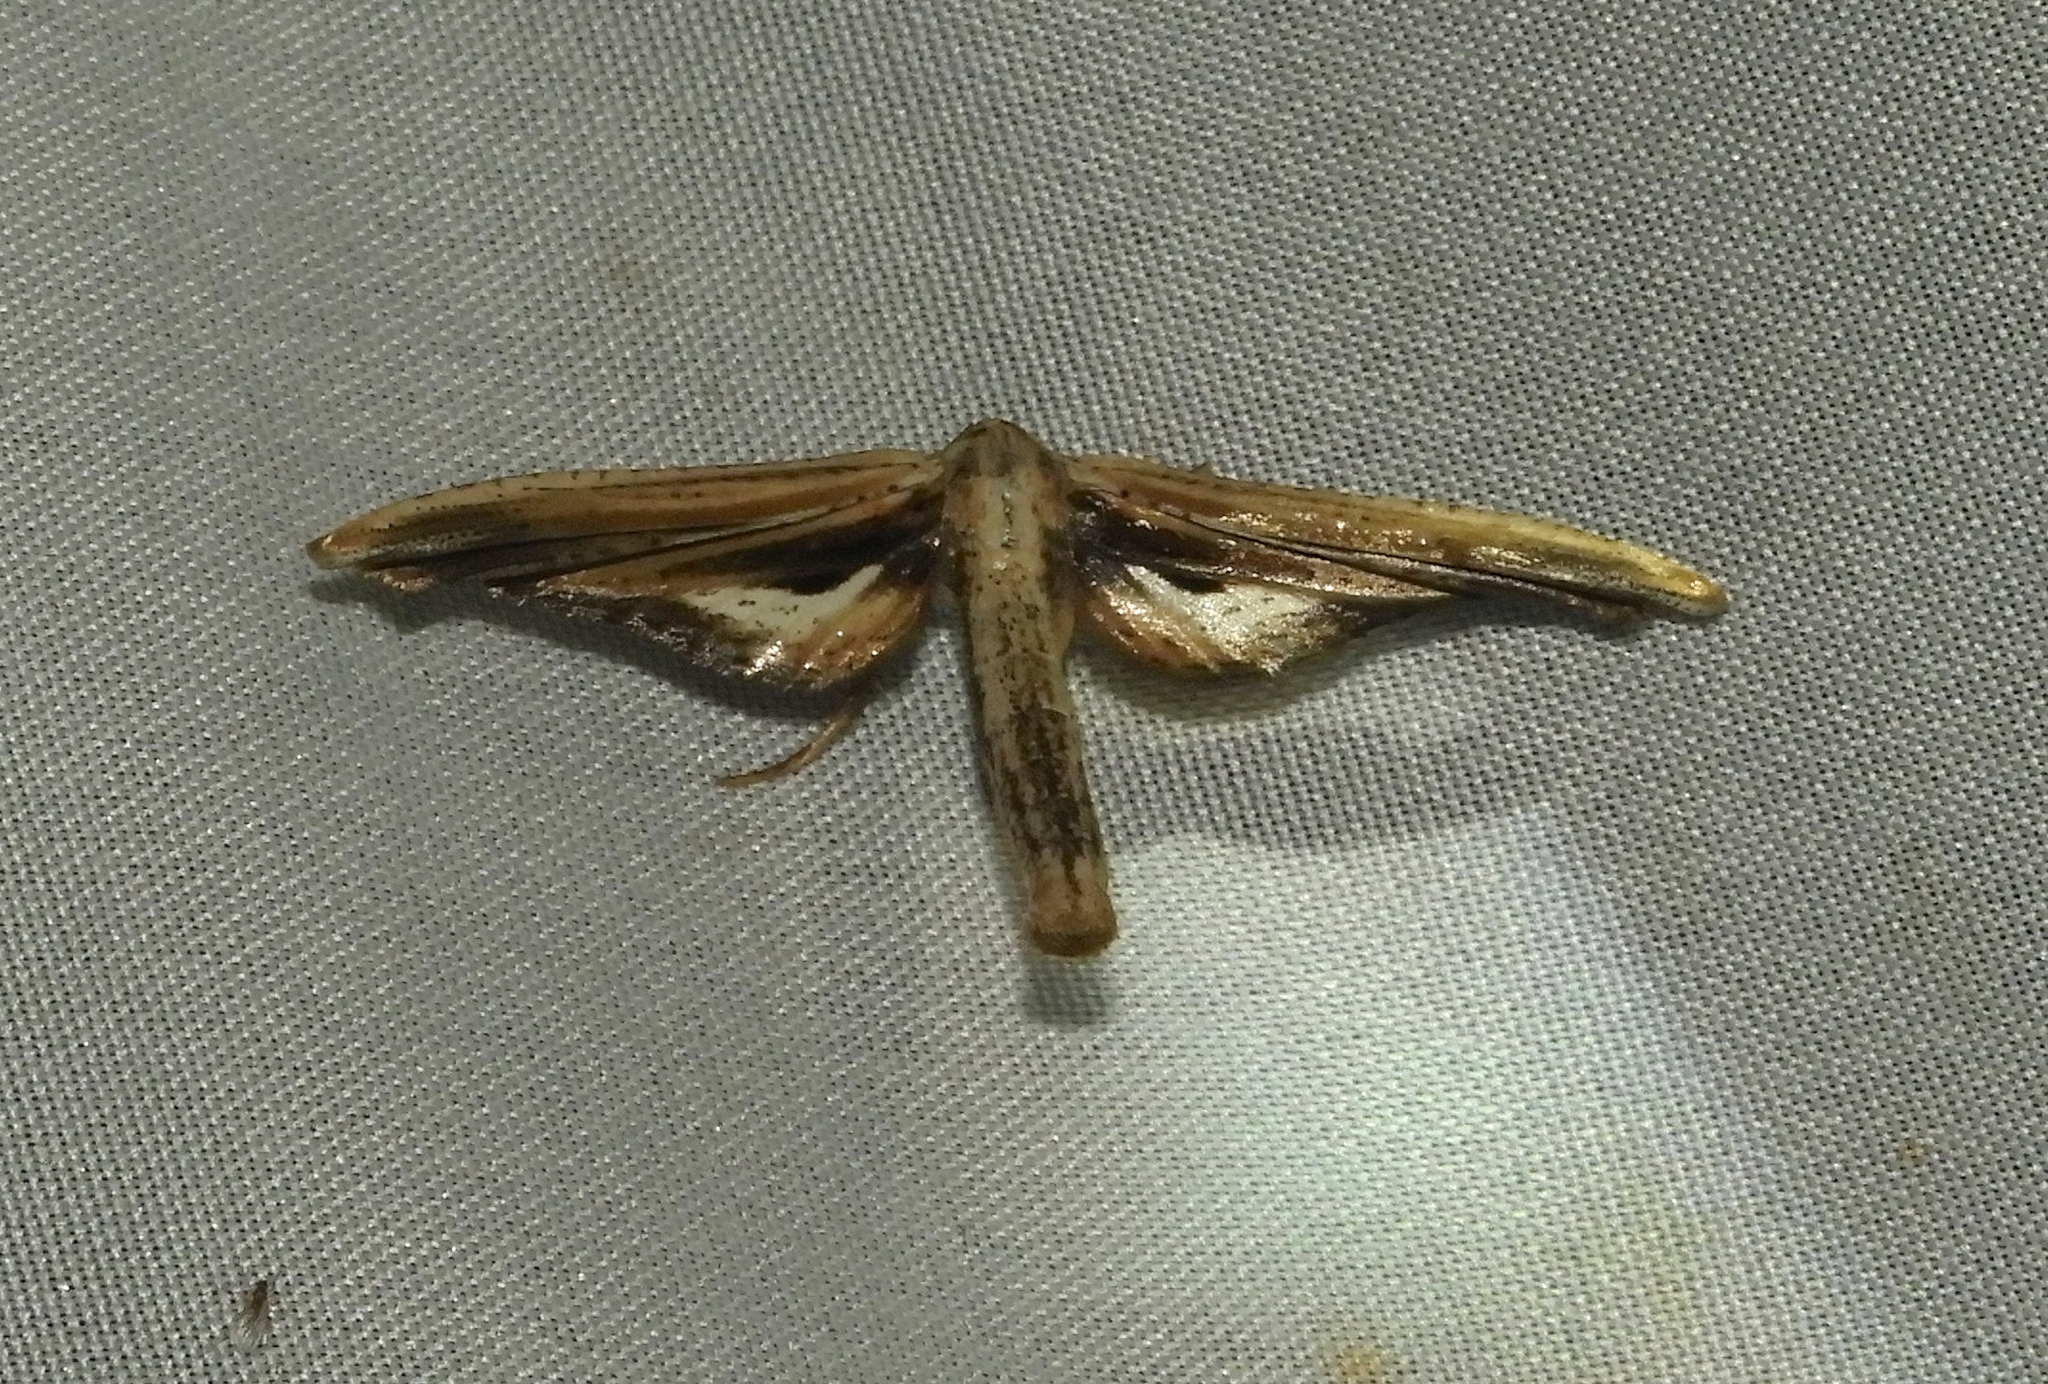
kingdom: Animalia
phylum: Arthropoda
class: Insecta
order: Lepidoptera
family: Thyrididae
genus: Meskea
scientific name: Meskea dyspteraria
